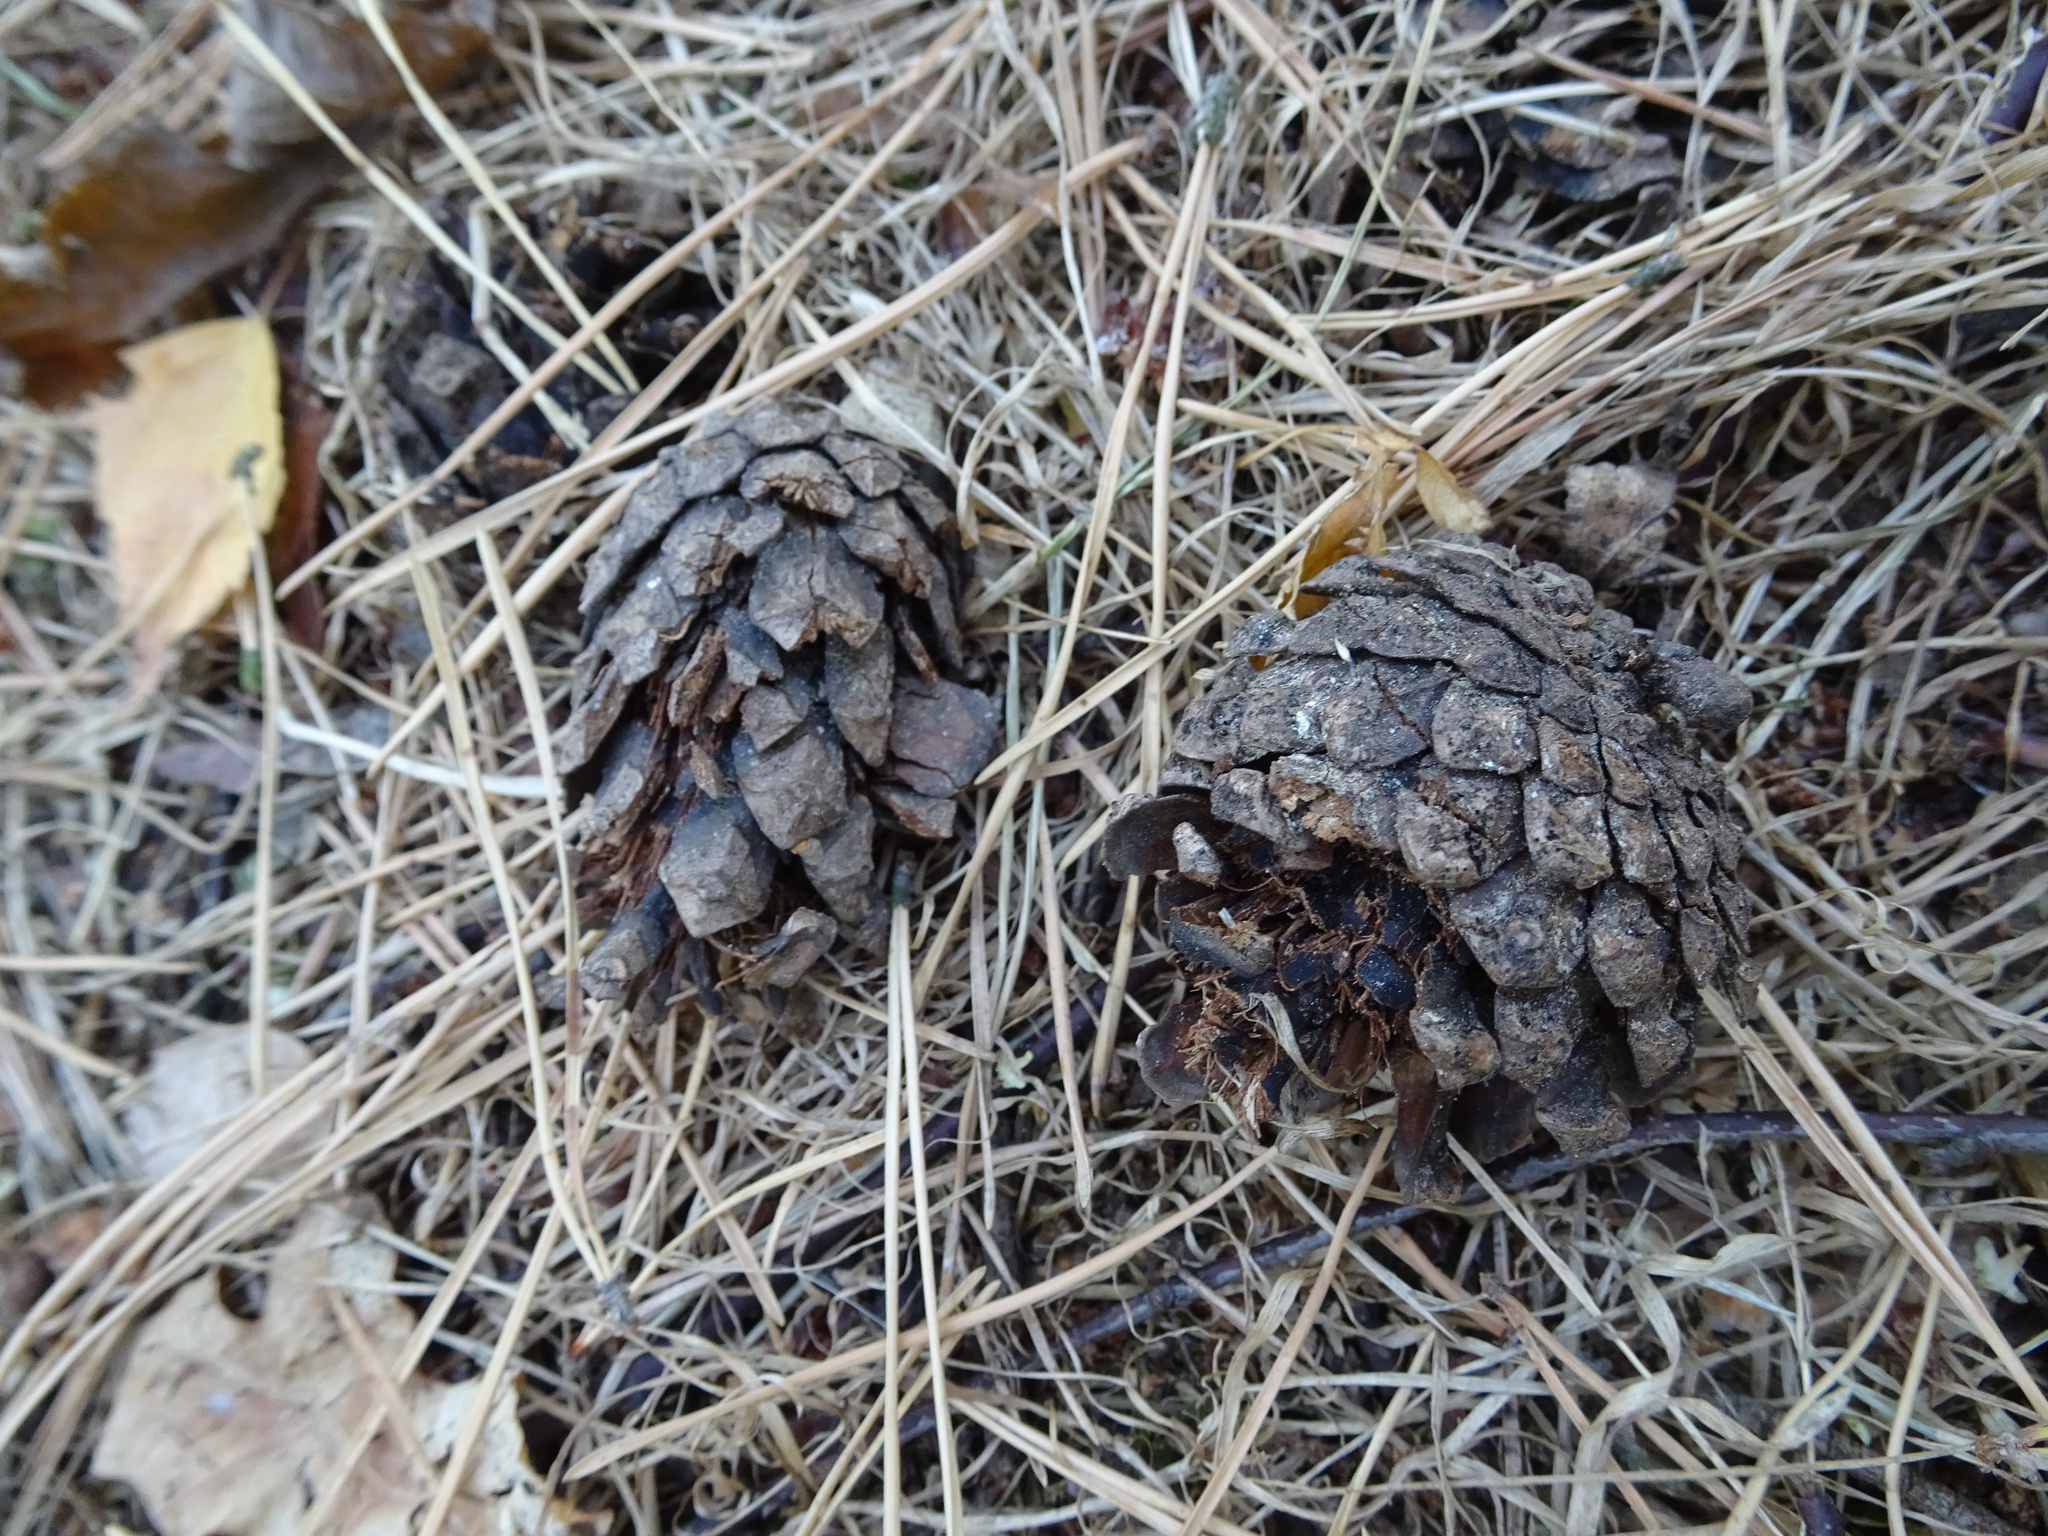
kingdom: Plantae
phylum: Tracheophyta
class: Pinopsida
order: Pinales
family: Pinaceae
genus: Pinus
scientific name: Pinus sylvestris
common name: Scots pine
